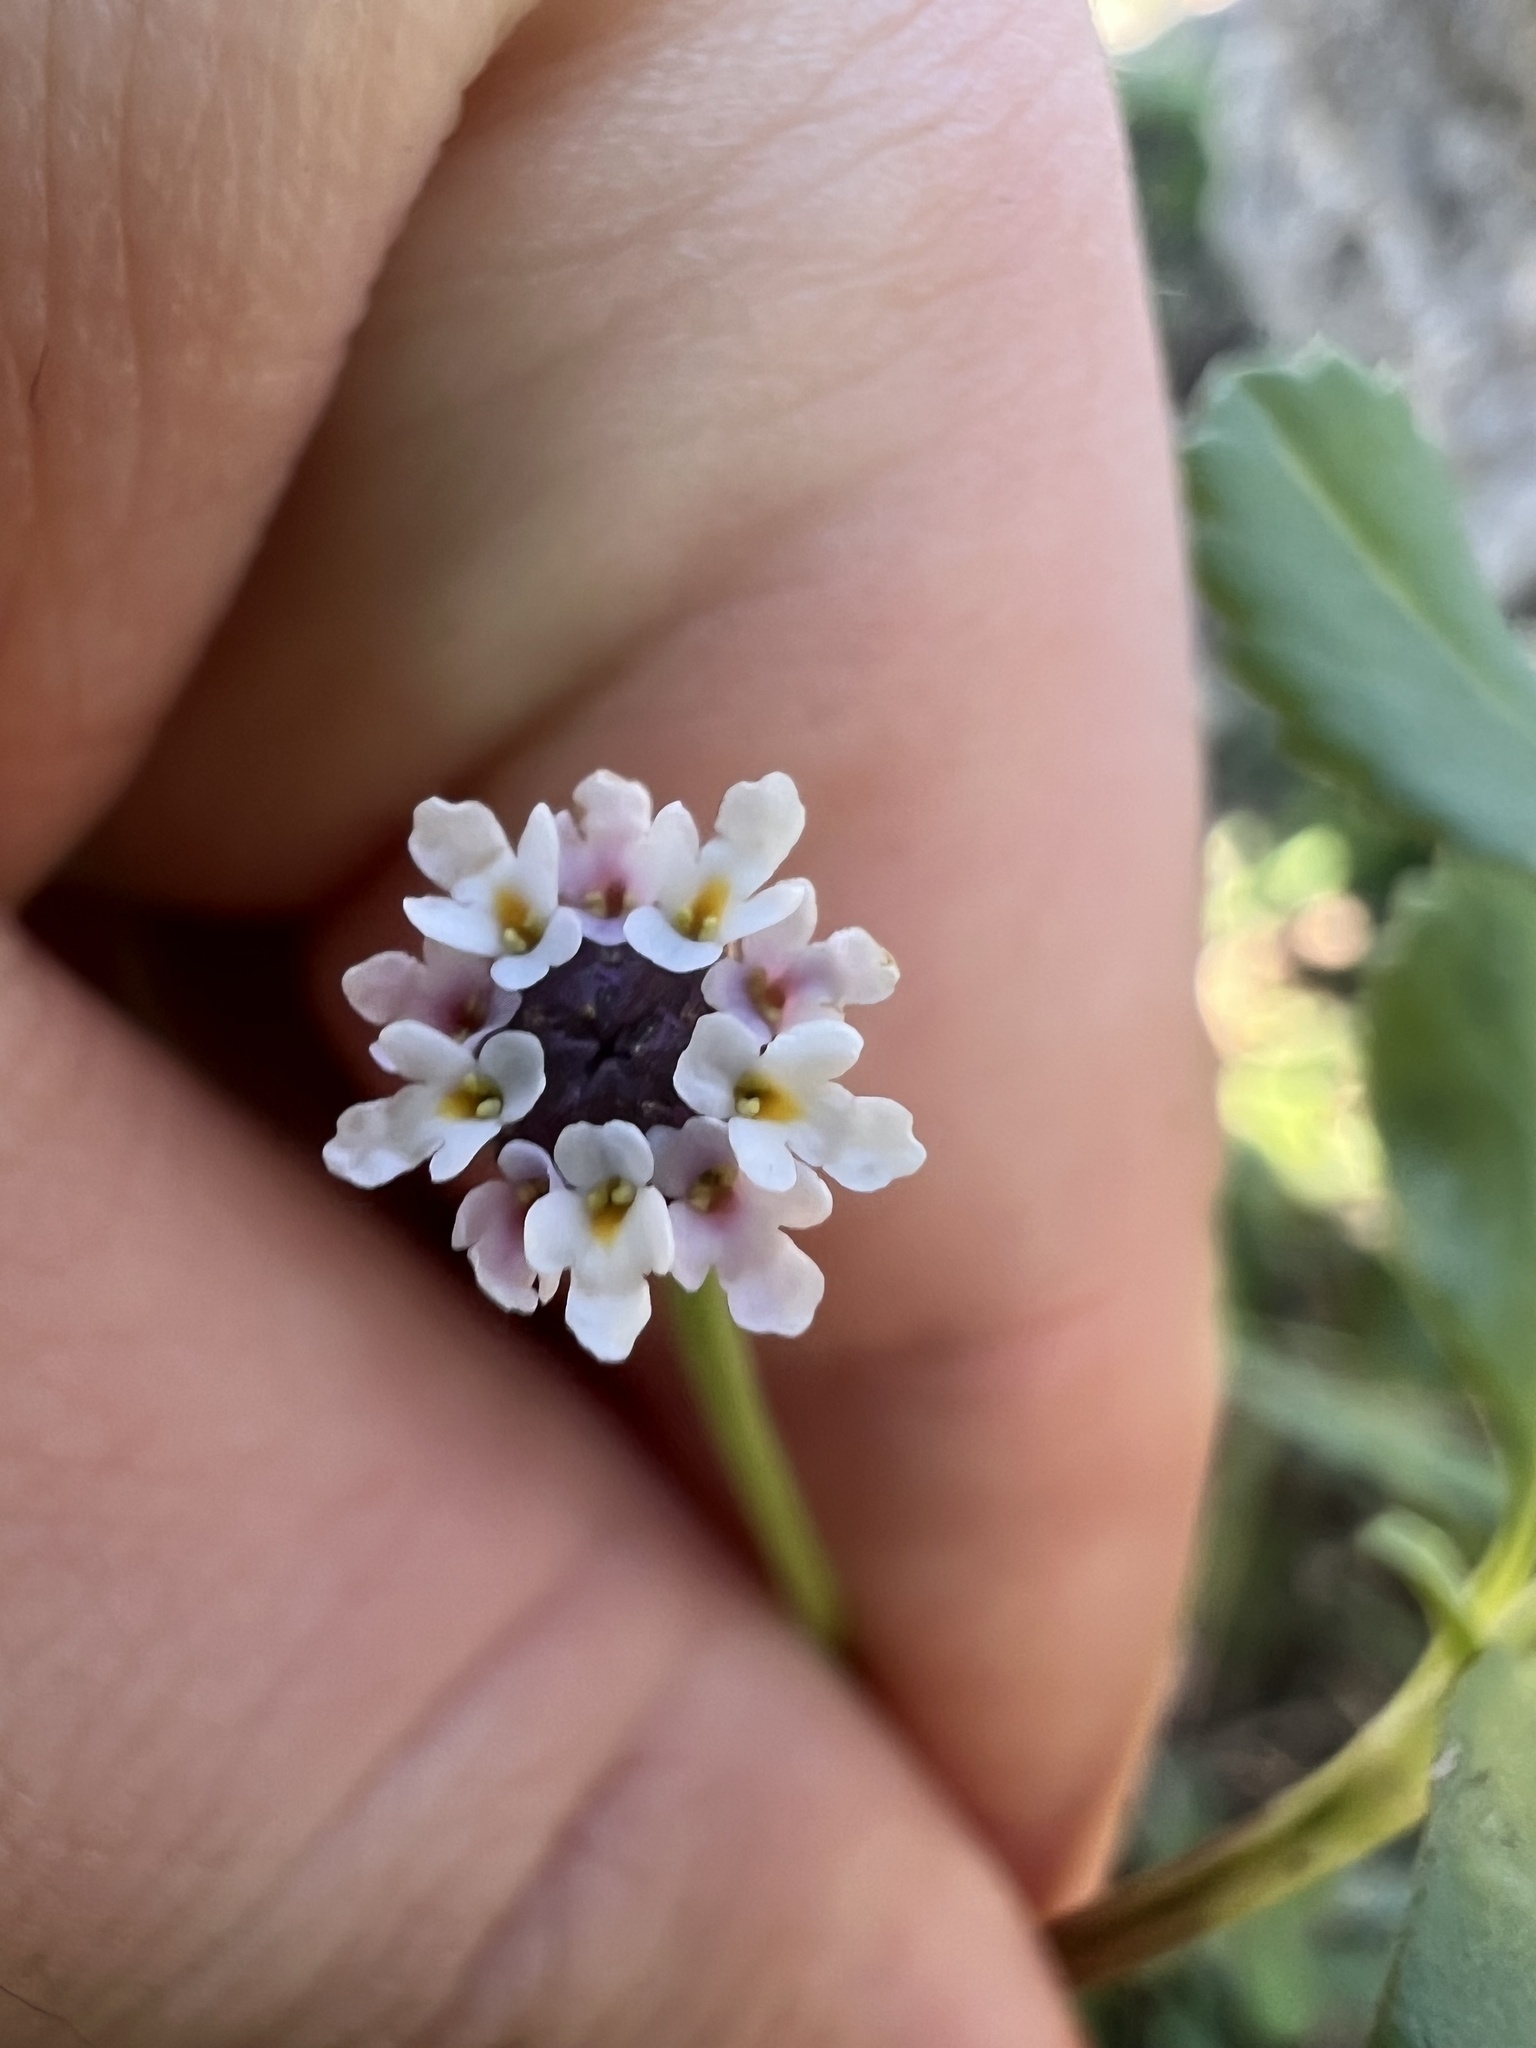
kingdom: Plantae
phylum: Tracheophyta
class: Magnoliopsida
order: Lamiales
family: Verbenaceae
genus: Phyla
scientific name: Phyla nodiflora
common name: Frogfruit
